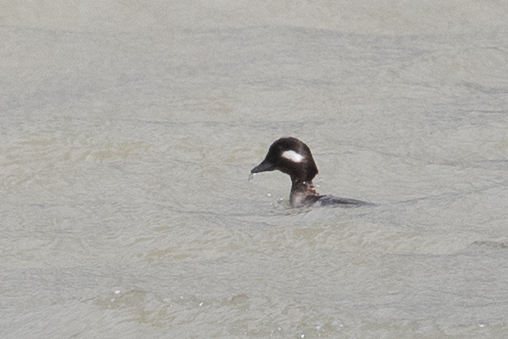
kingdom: Animalia
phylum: Chordata
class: Aves
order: Anseriformes
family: Anatidae
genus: Bucephala
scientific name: Bucephala albeola
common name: Bufflehead
